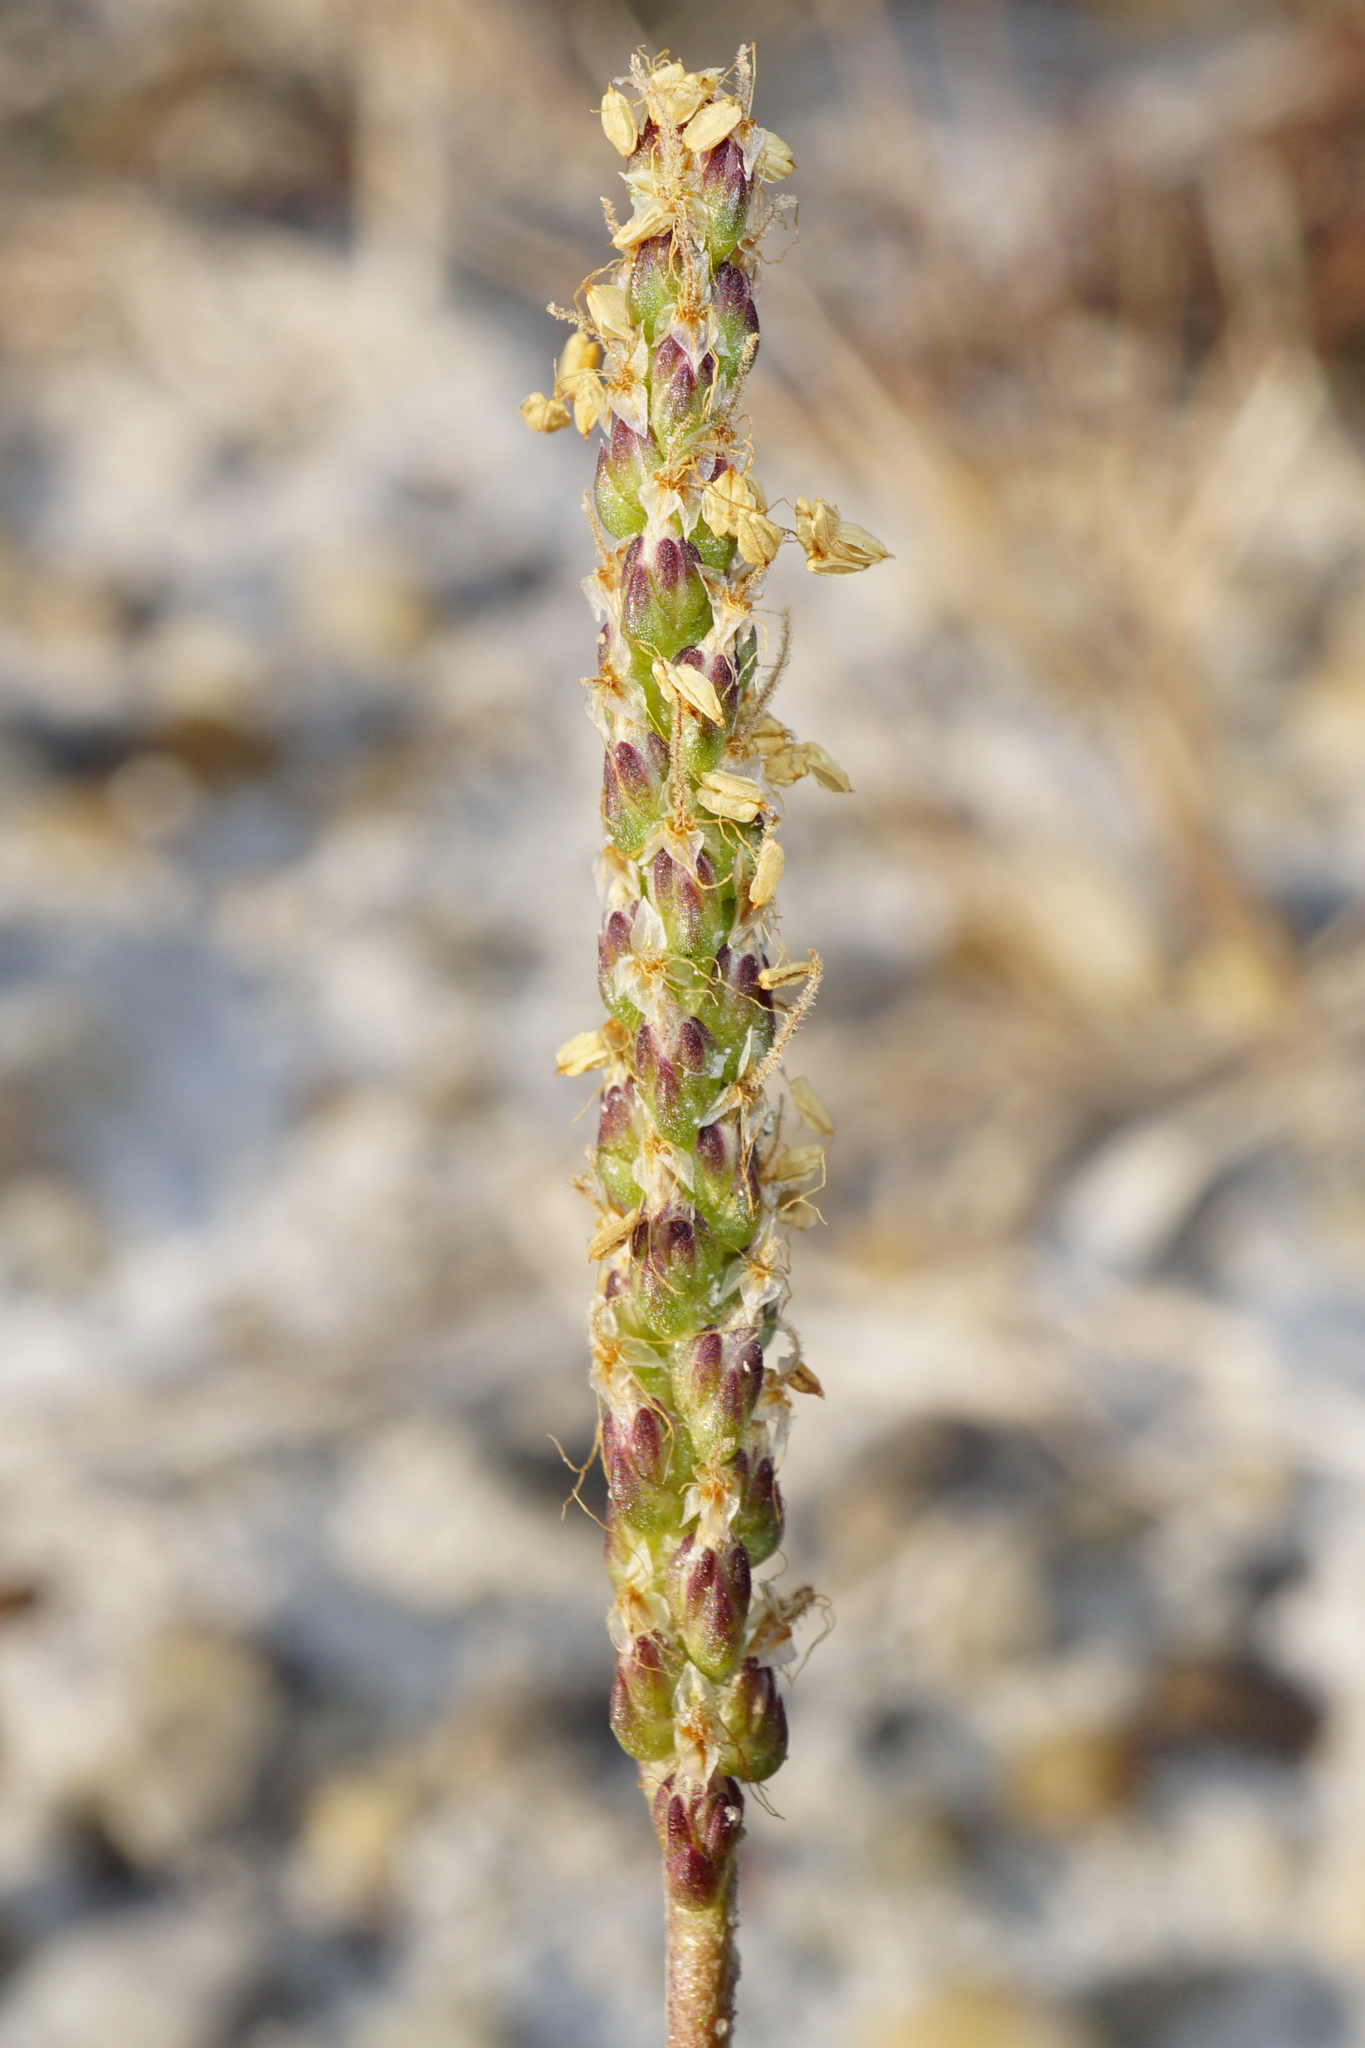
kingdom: Plantae
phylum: Tracheophyta
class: Magnoliopsida
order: Lamiales
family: Plantaginaceae
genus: Plantago
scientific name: Plantago maritima
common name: Sea plantain
